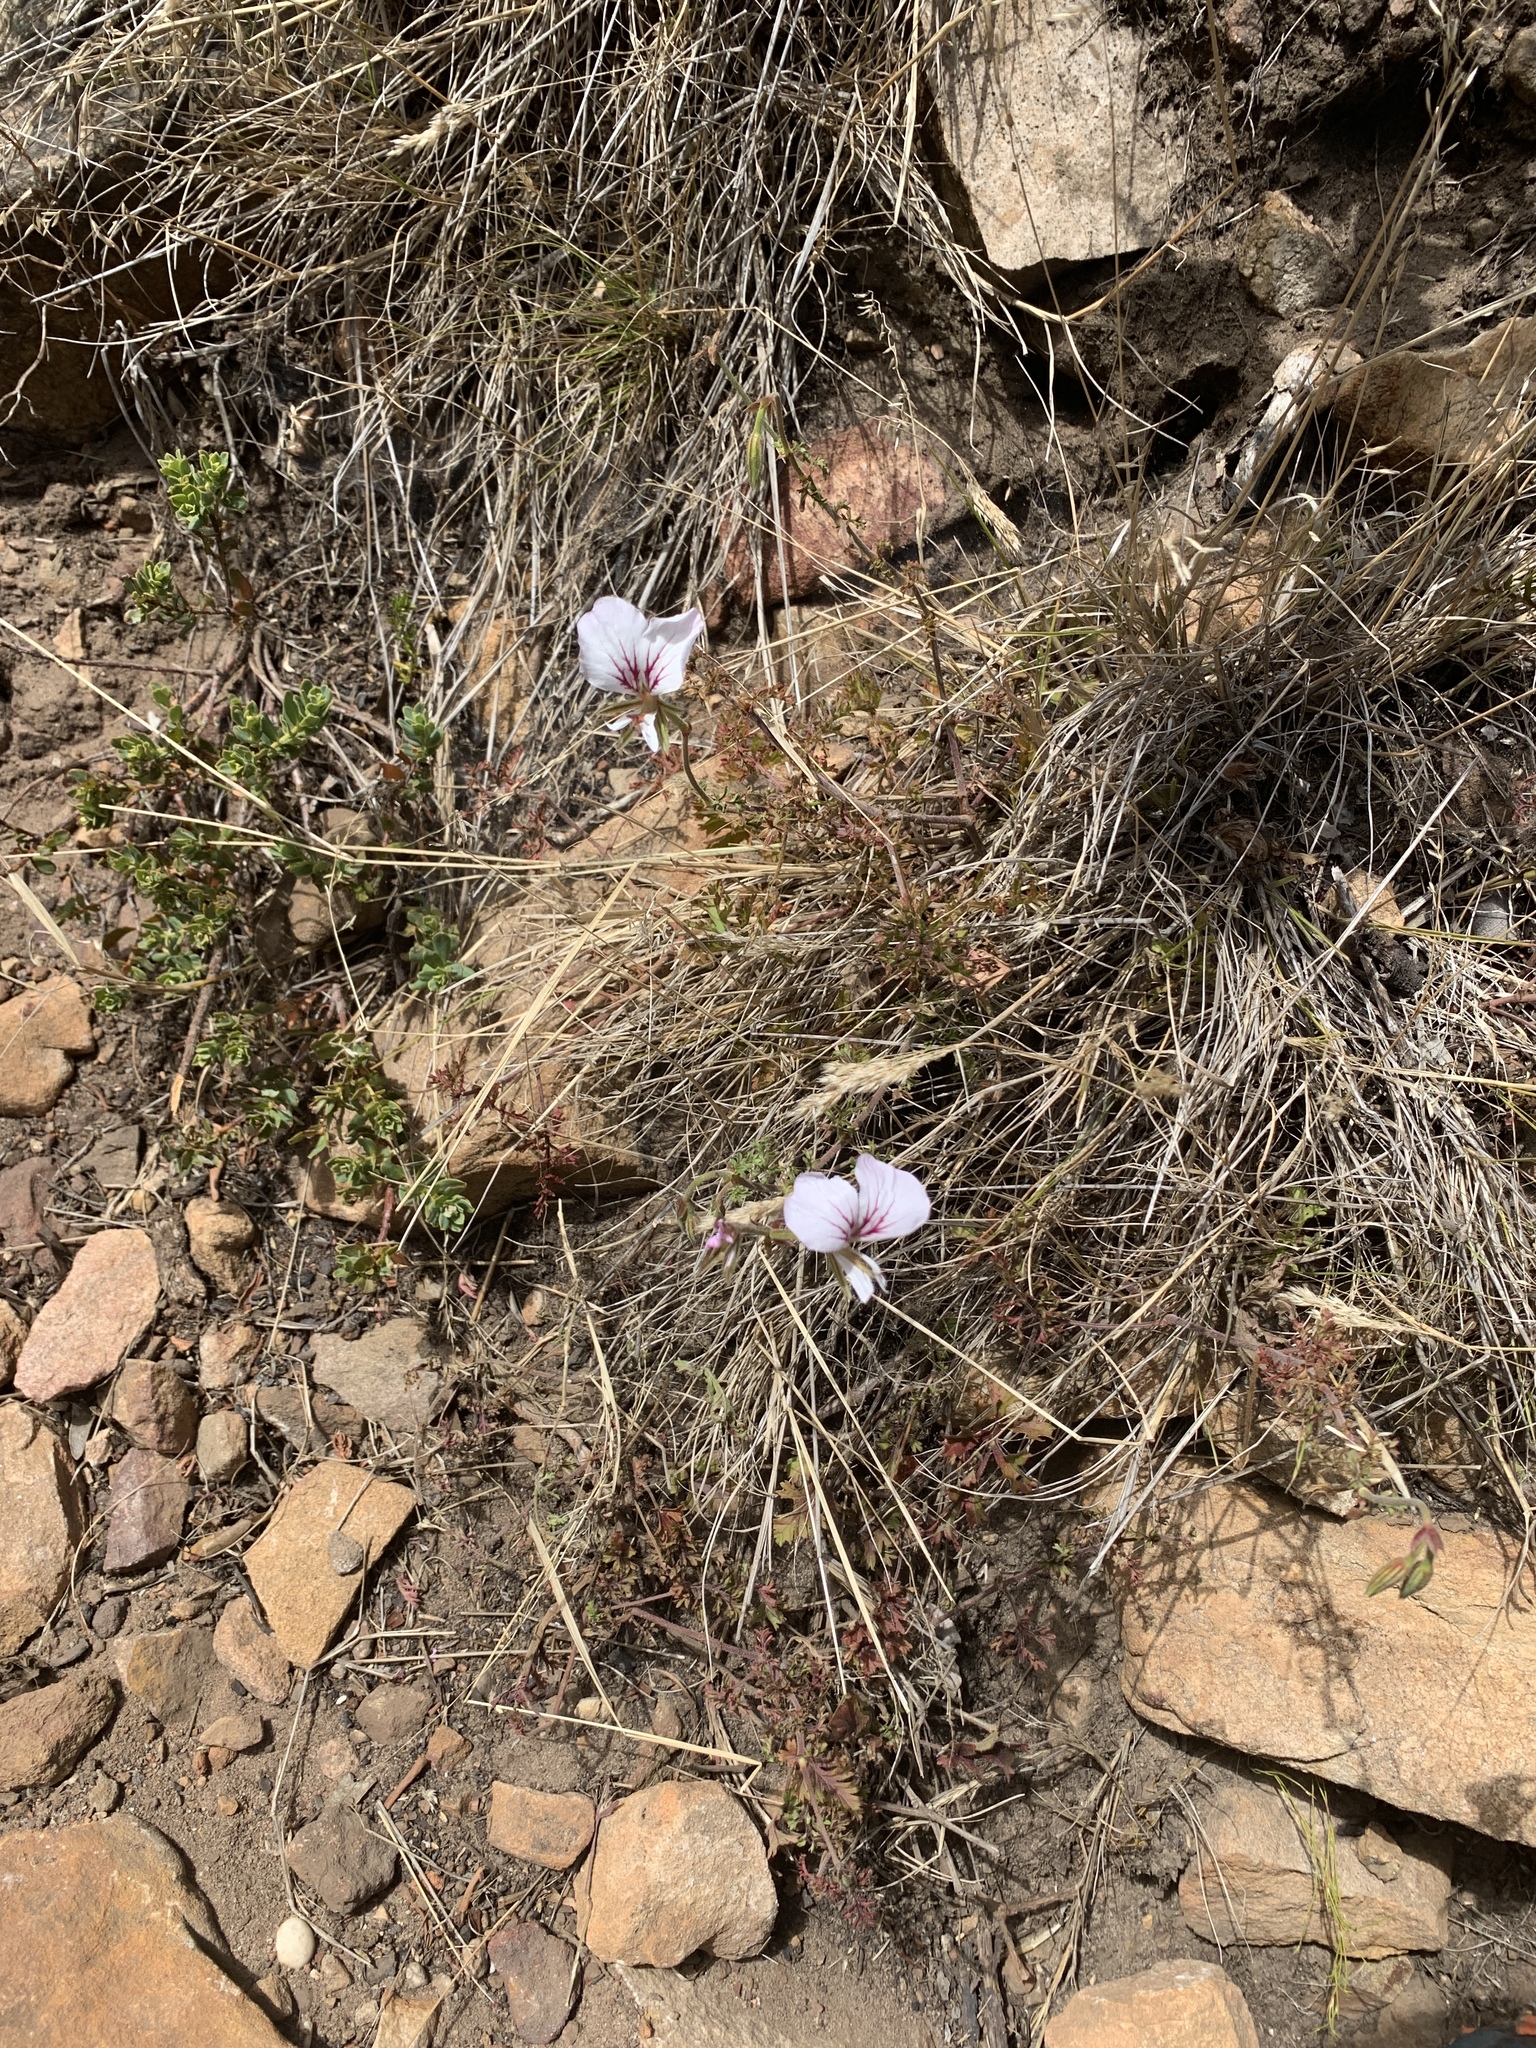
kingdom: Plantae
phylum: Tracheophyta
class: Magnoliopsida
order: Geraniales
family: Geraniaceae
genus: Pelargonium
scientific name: Pelargonium myrrhifolium
